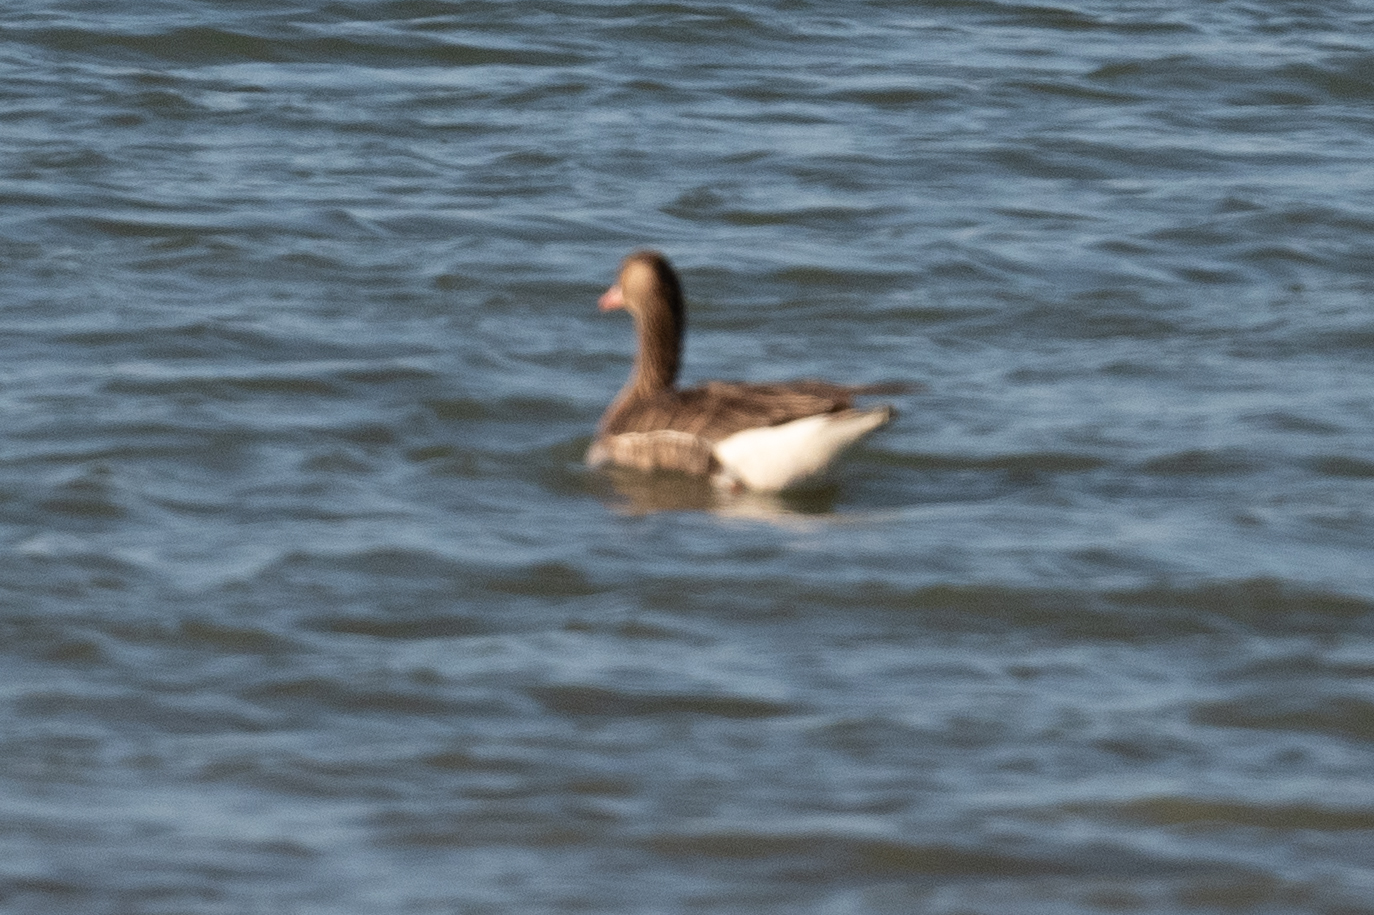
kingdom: Animalia
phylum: Chordata
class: Aves
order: Anseriformes
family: Anatidae
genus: Anser
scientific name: Anser albifrons
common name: Greater white-fronted goose
